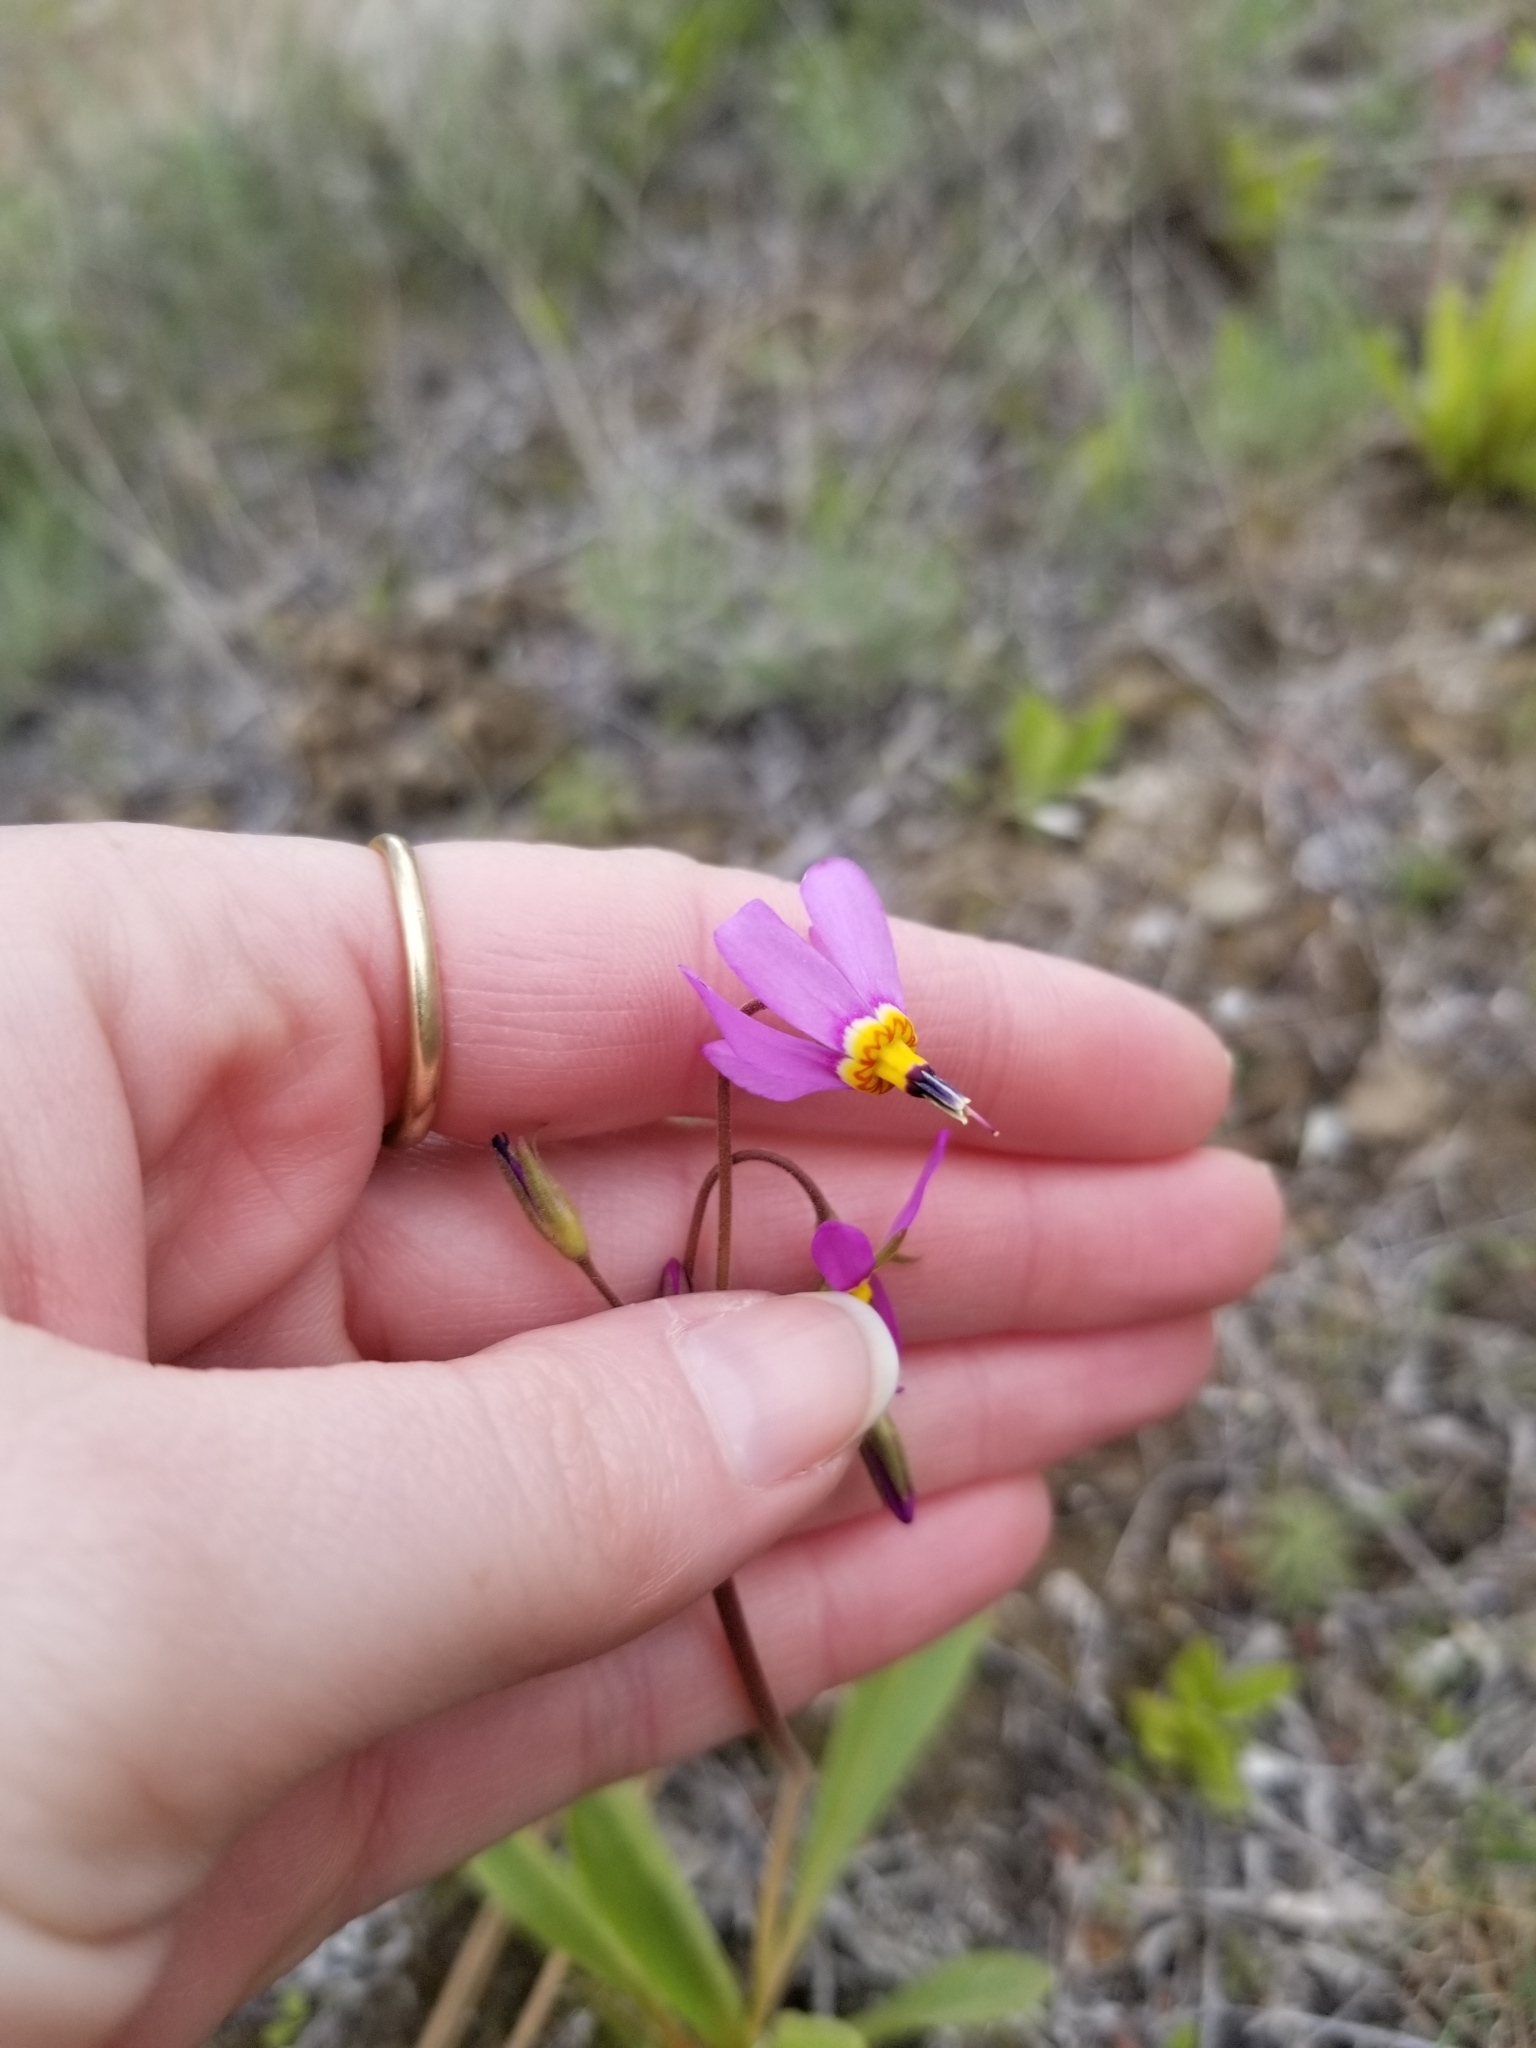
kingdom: Plantae
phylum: Tracheophyta
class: Magnoliopsida
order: Ericales
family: Primulaceae
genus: Dodecatheon
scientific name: Dodecatheon pulchellum
